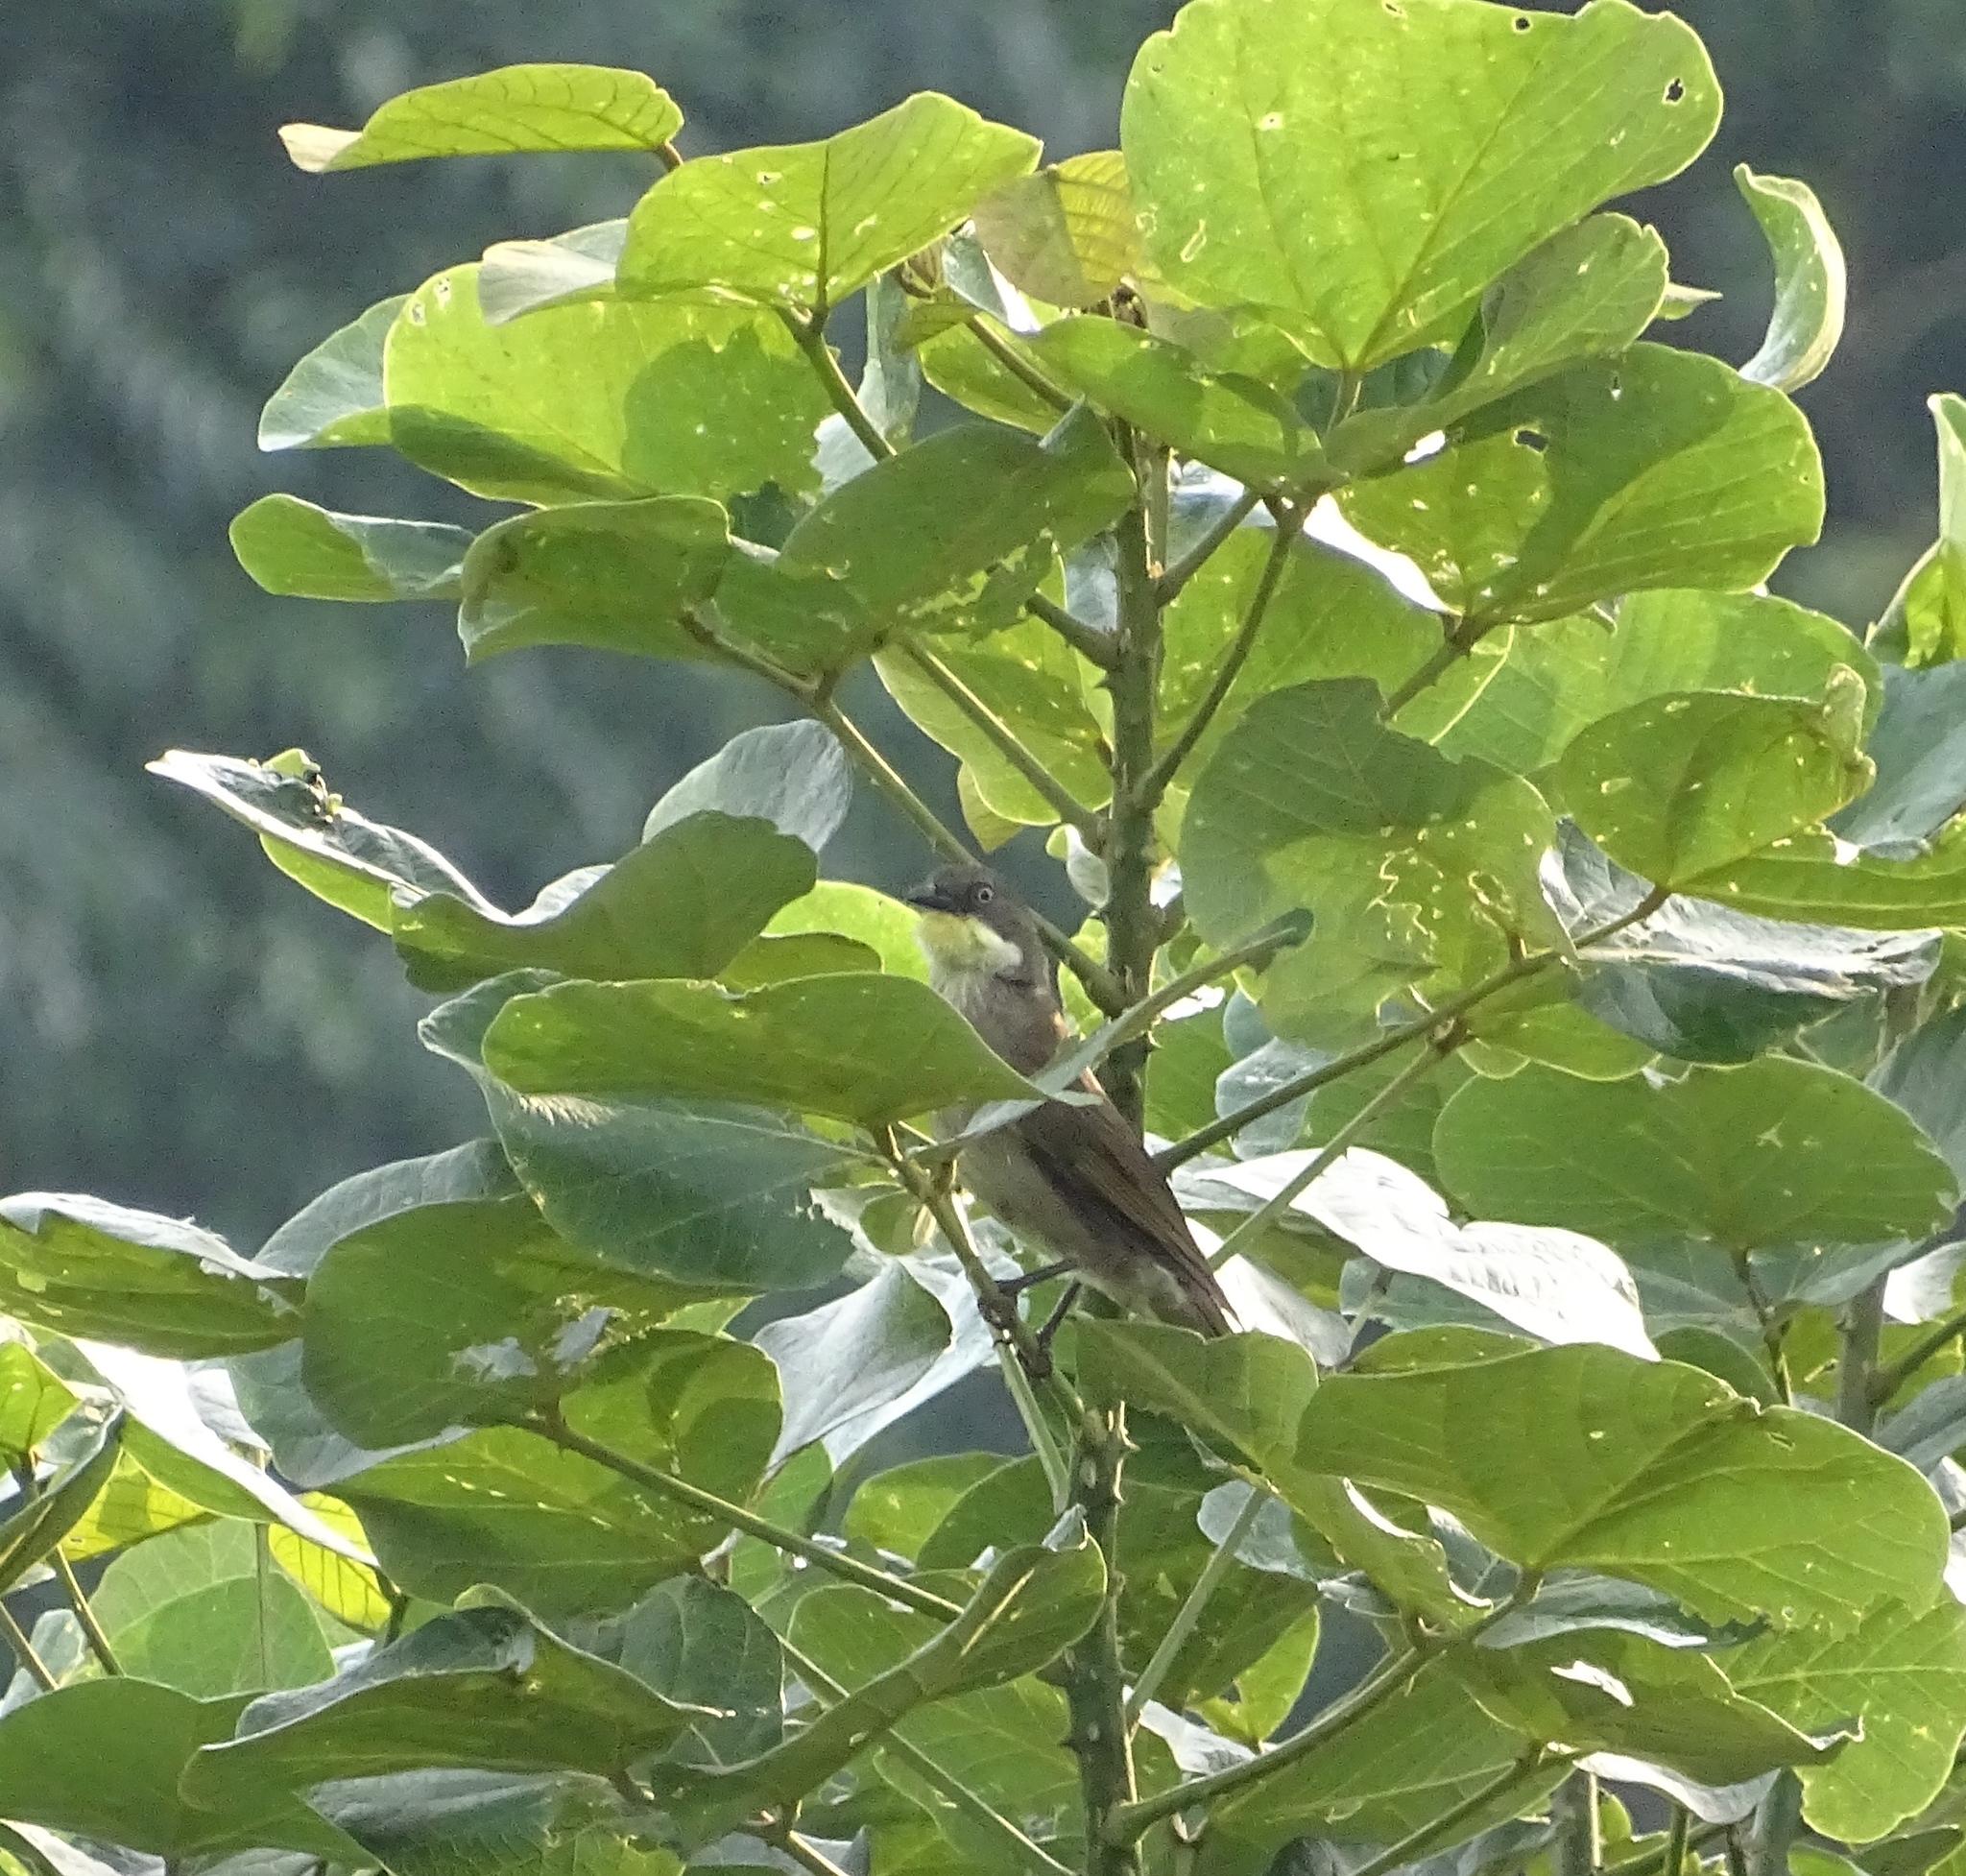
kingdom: Animalia
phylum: Chordata
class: Aves
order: Passeriformes
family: Pycnonotidae
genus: Atimastillas
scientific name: Atimastillas flavicollis
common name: Yellow-throated leaflove
